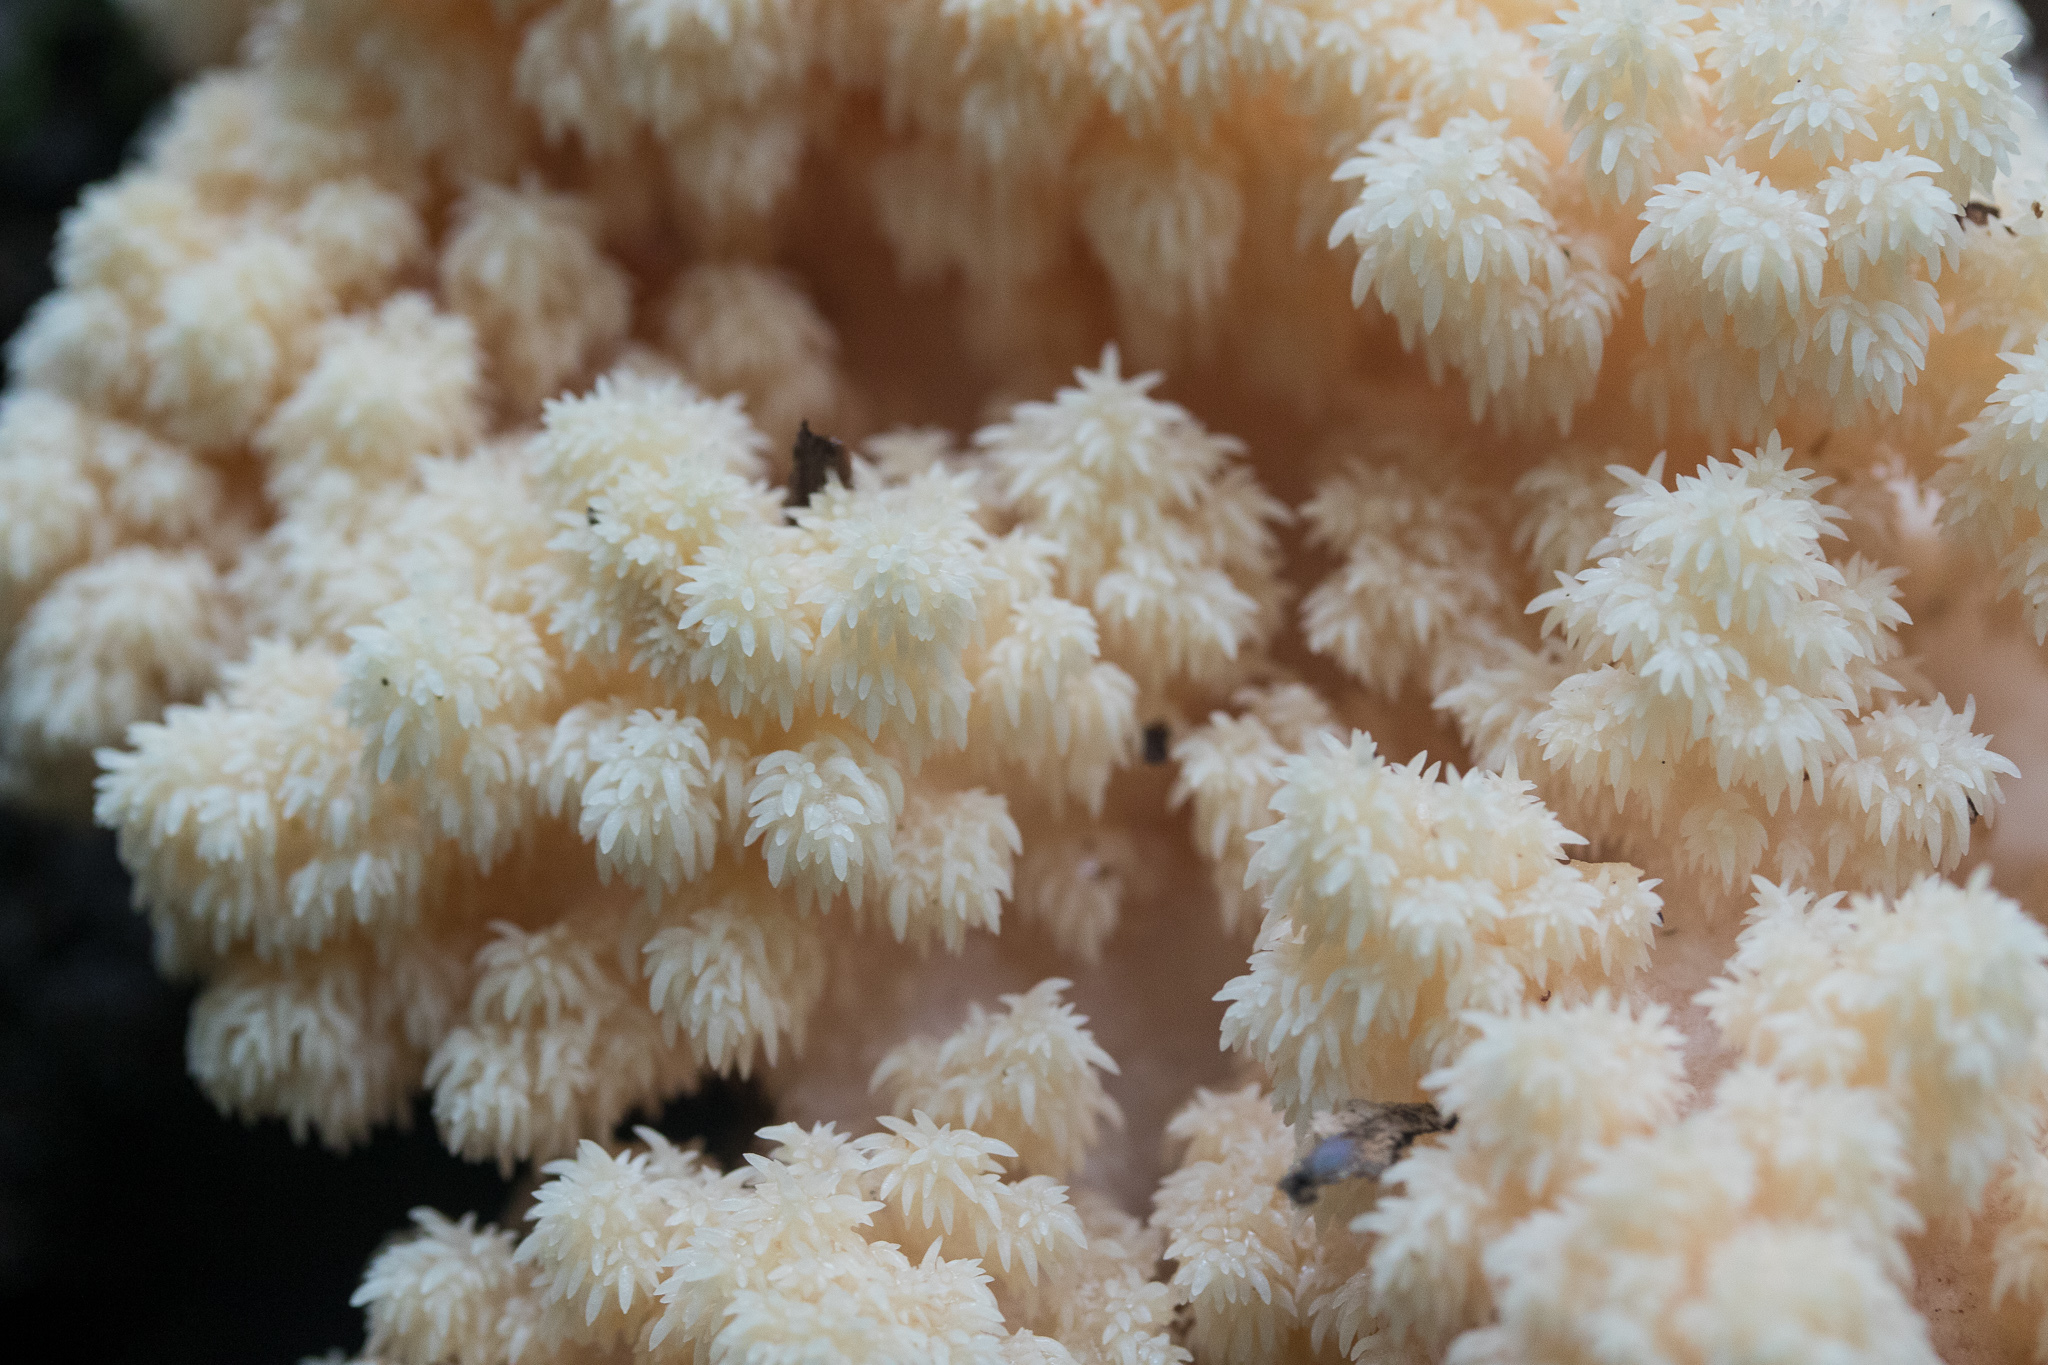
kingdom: Fungi
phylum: Basidiomycota
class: Agaricomycetes
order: Russulales
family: Hericiaceae
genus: Hericium
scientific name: Hericium coralloides
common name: Coral tooth
